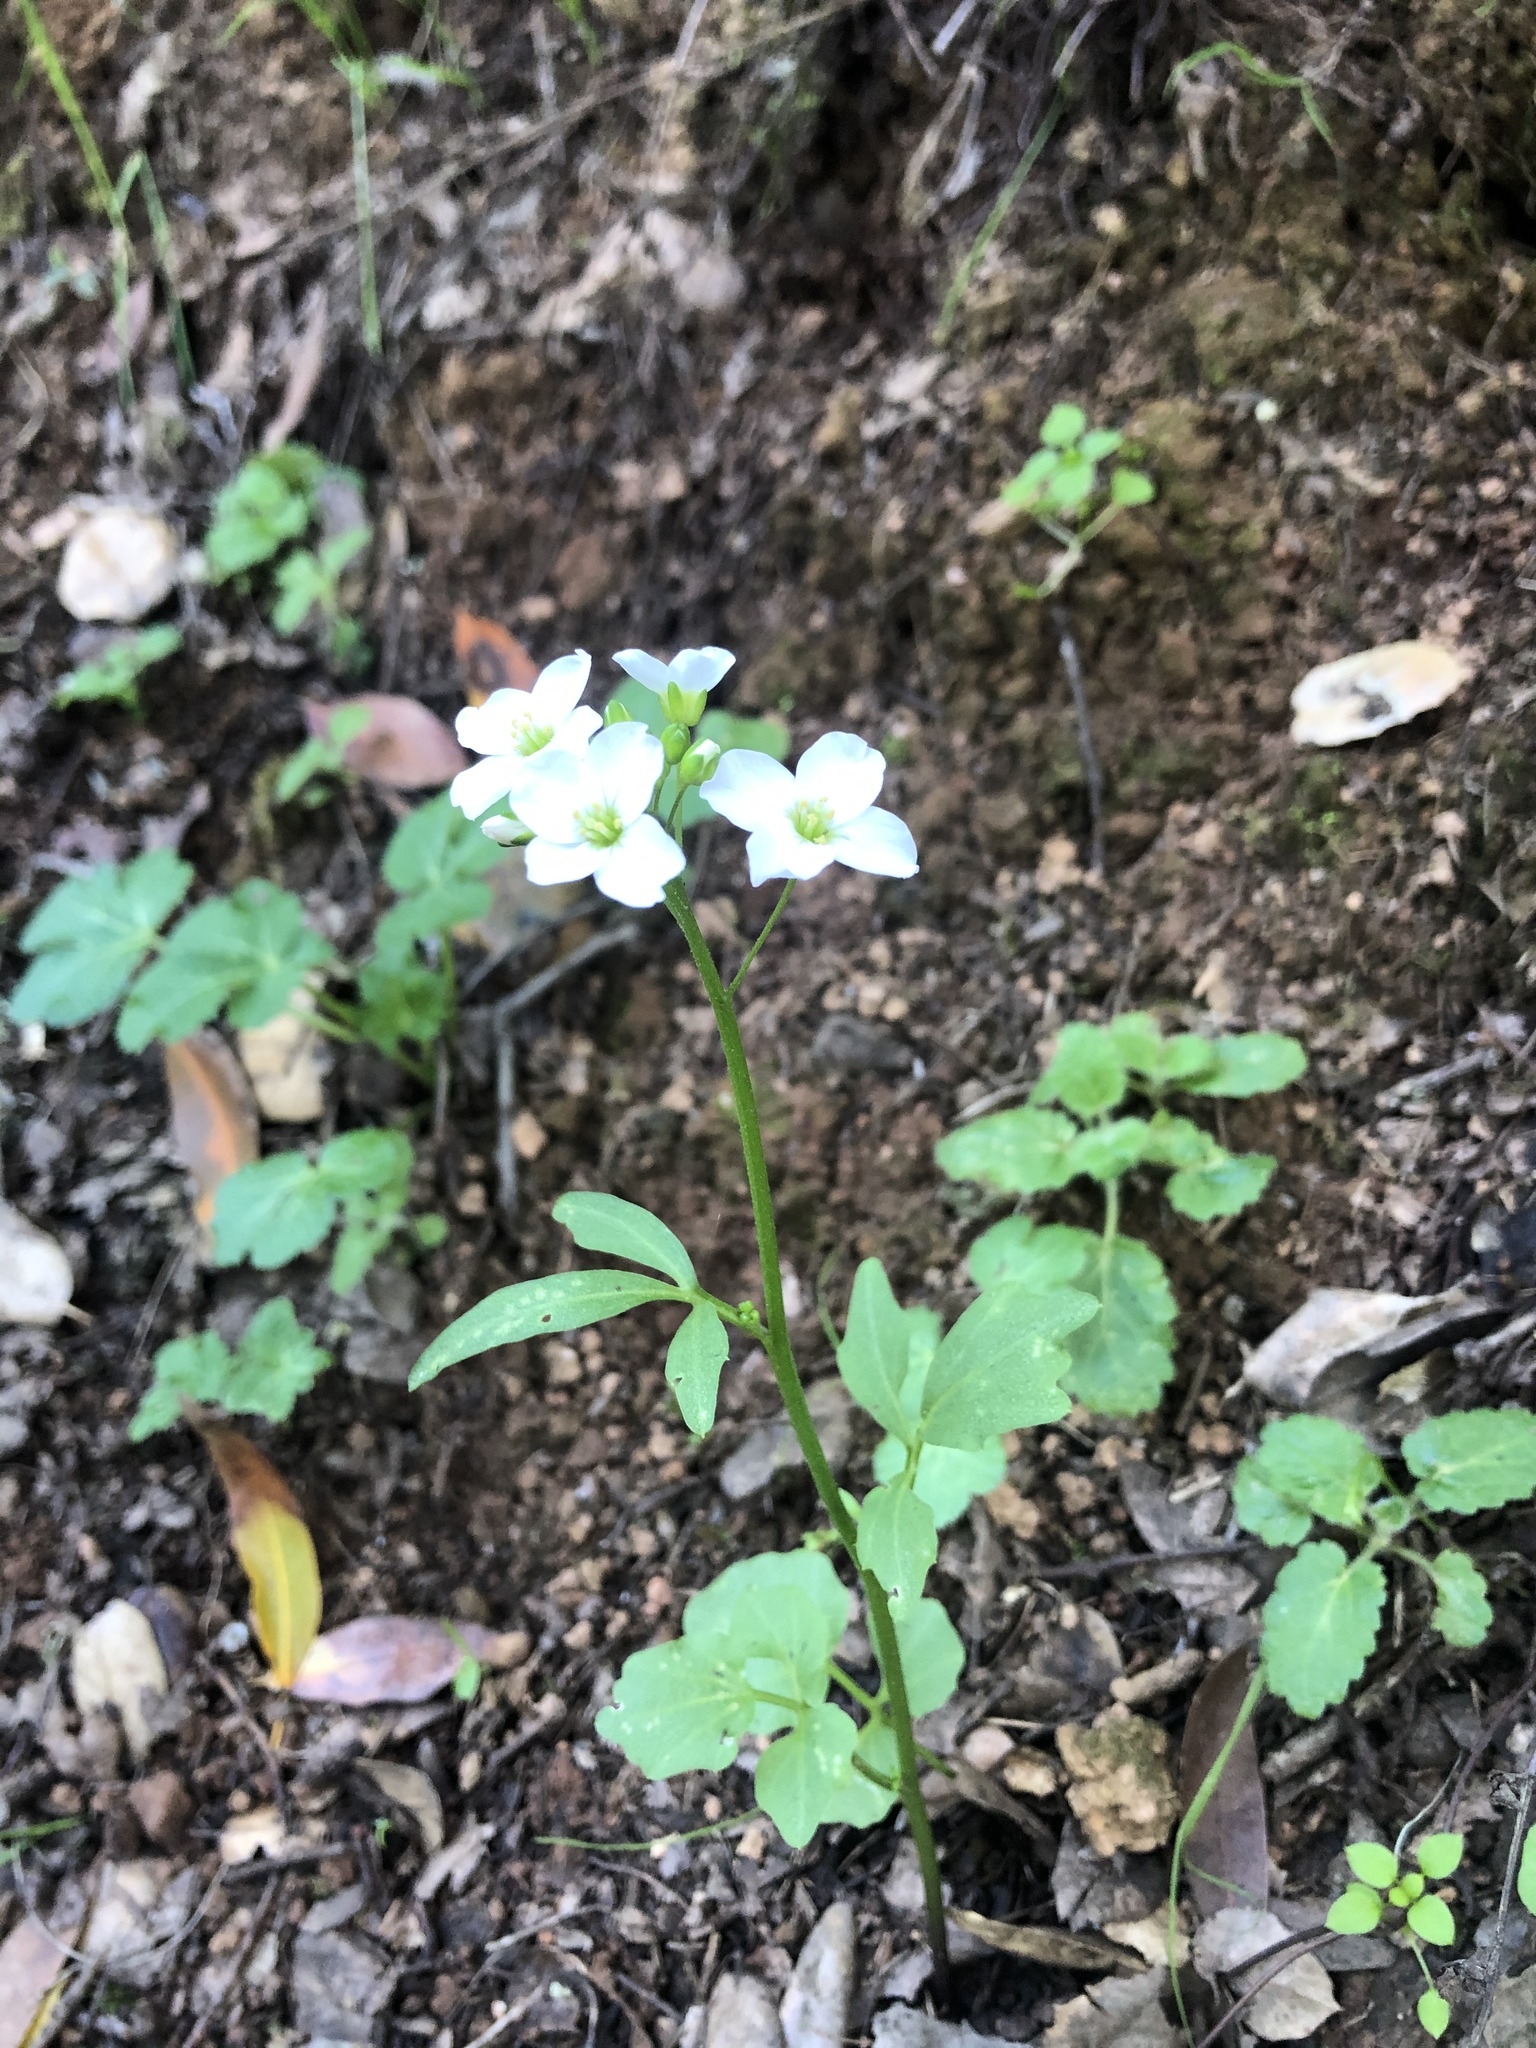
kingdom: Plantae
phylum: Tracheophyta
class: Magnoliopsida
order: Brassicales
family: Brassicaceae
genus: Cardamine
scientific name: Cardamine californica
